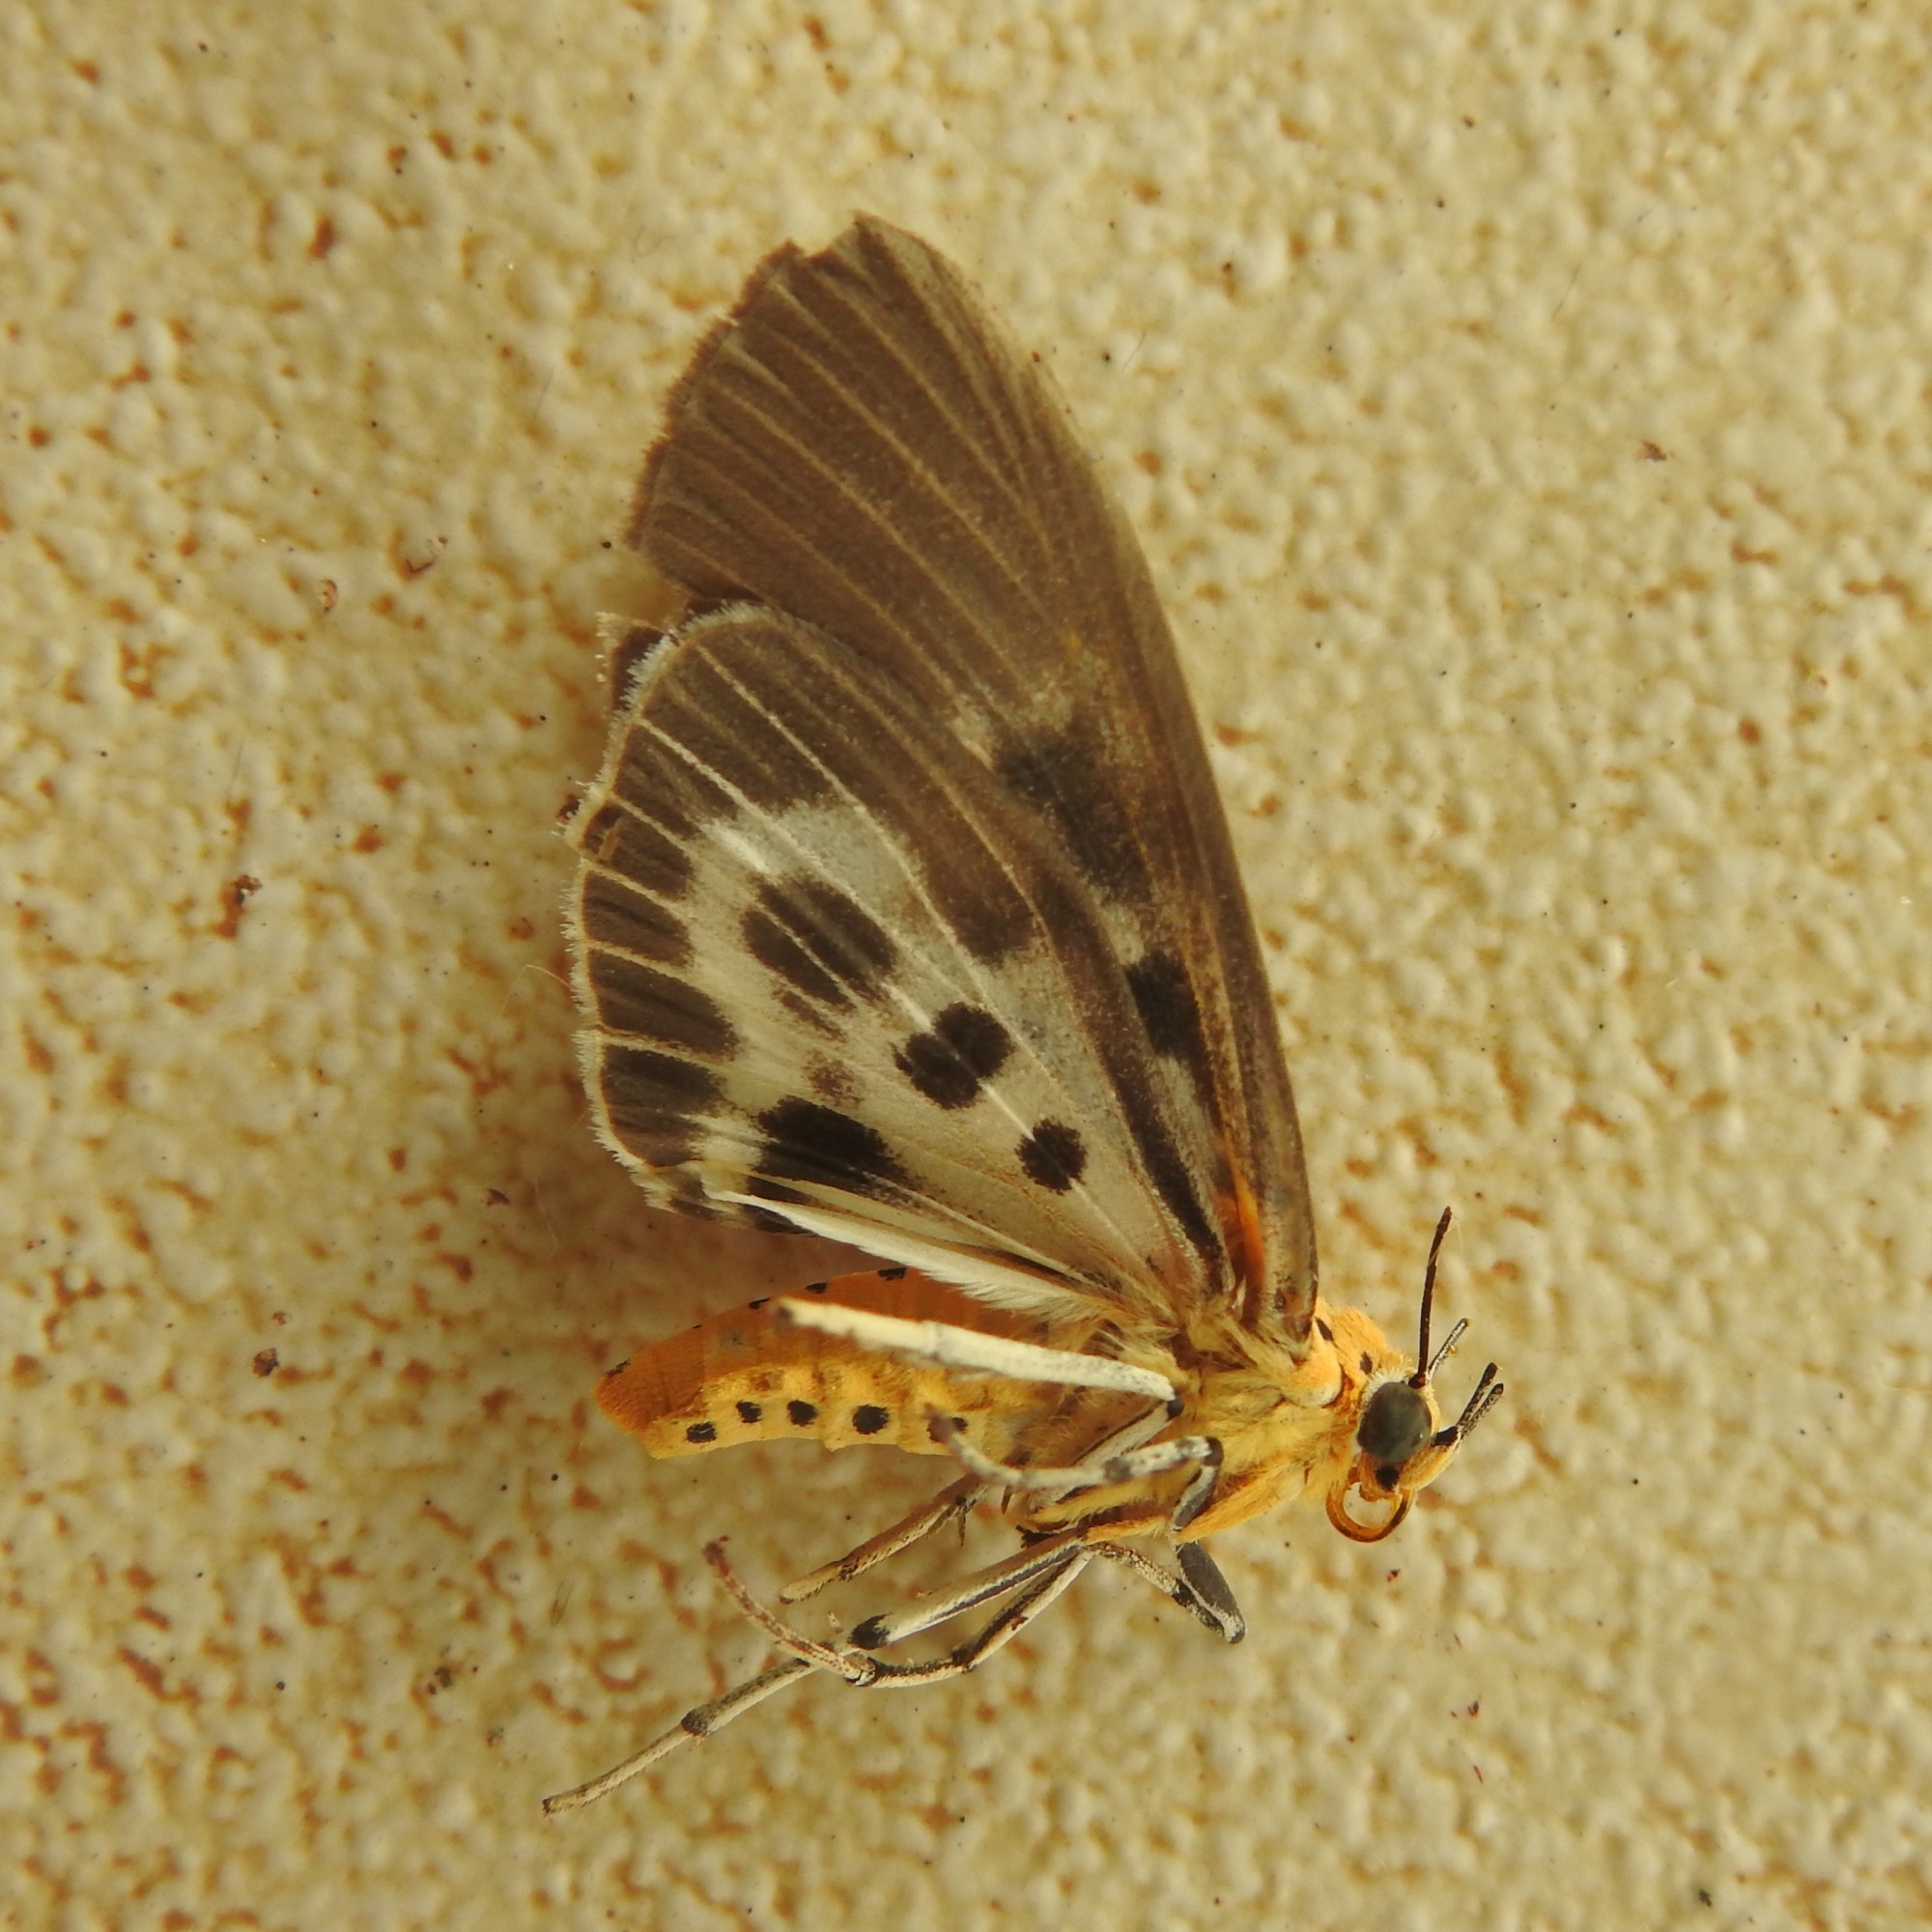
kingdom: Animalia
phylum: Arthropoda
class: Insecta
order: Lepidoptera
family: Erebidae
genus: Asota
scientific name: Asota canaraica
